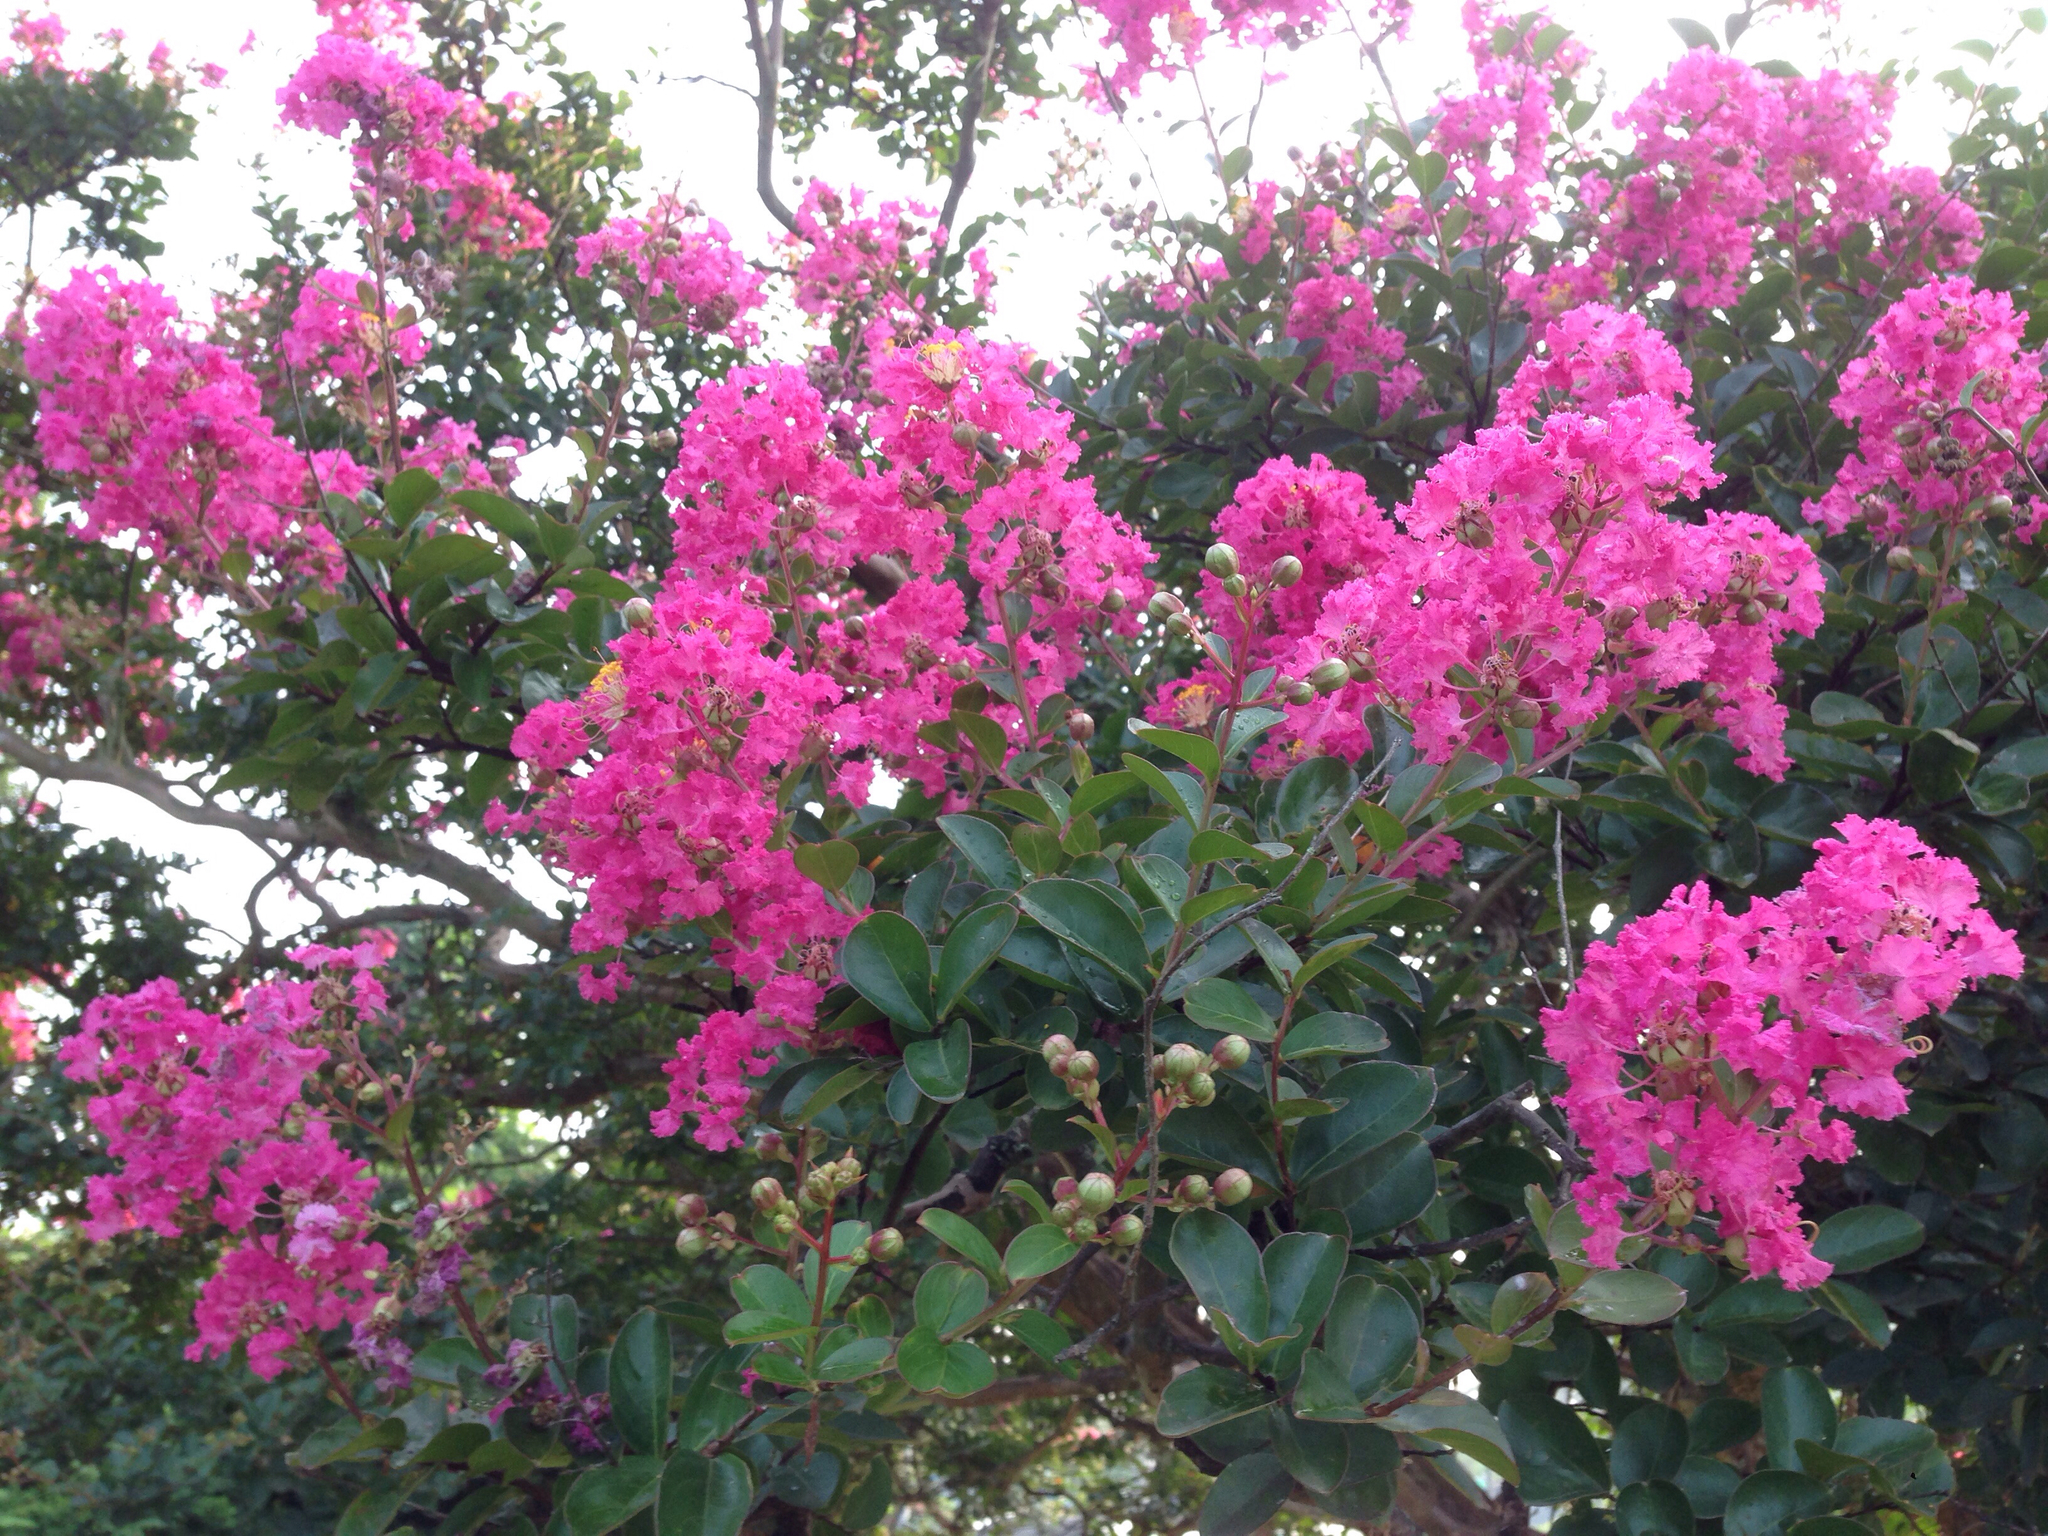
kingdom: Plantae
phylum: Tracheophyta
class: Magnoliopsida
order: Myrtales
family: Lythraceae
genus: Lagerstroemia
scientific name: Lagerstroemia indica
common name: Crape-myrtle
